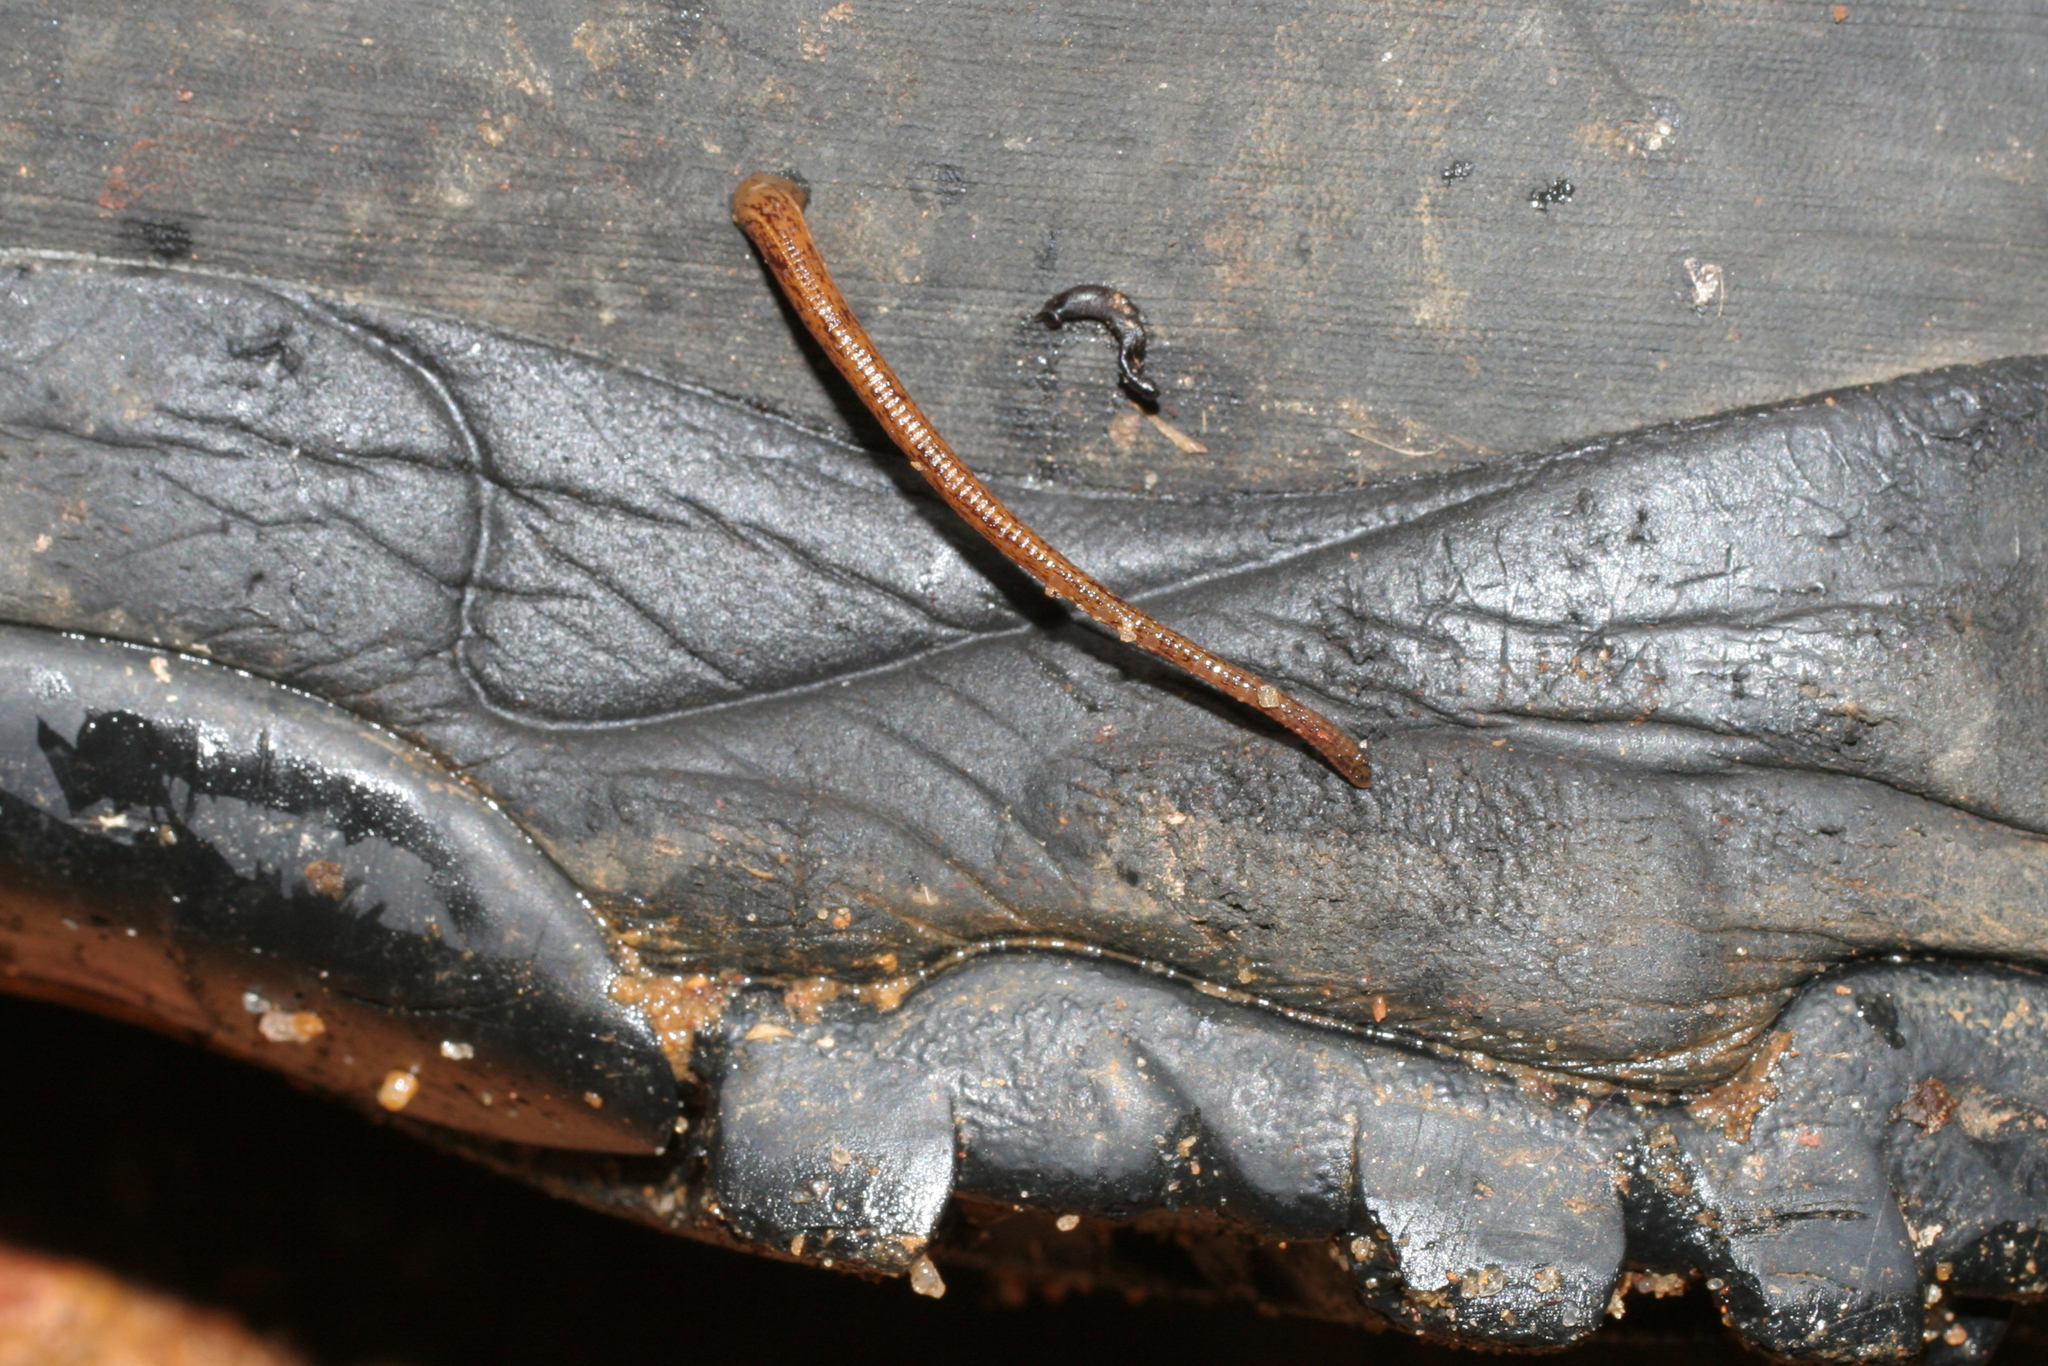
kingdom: Animalia
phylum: Annelida
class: Clitellata
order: Arhynchobdellida
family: Haemadipsidae
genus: Haemadipsa
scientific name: Haemadipsa zeylanica
